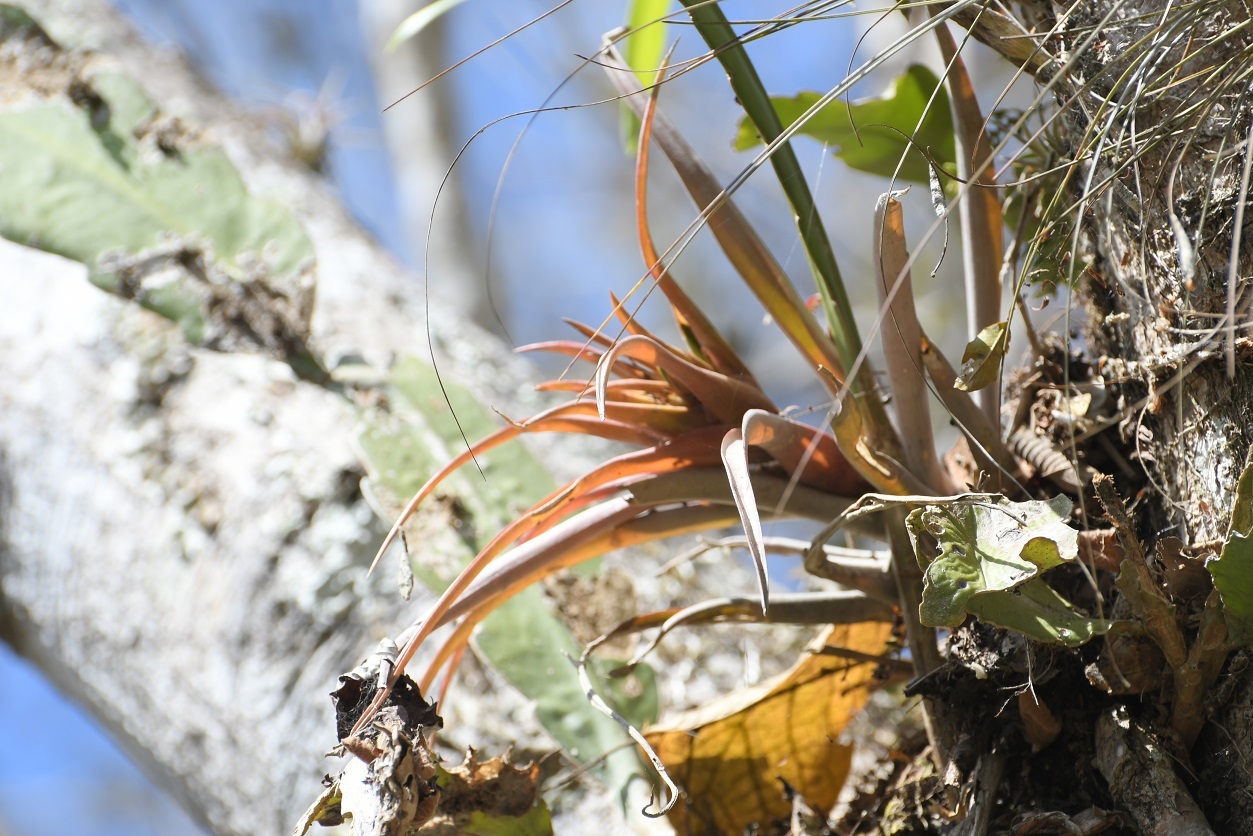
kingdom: Plantae
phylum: Tracheophyta
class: Liliopsida
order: Poales
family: Bromeliaceae
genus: Tillandsia
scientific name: Tillandsia capitata
